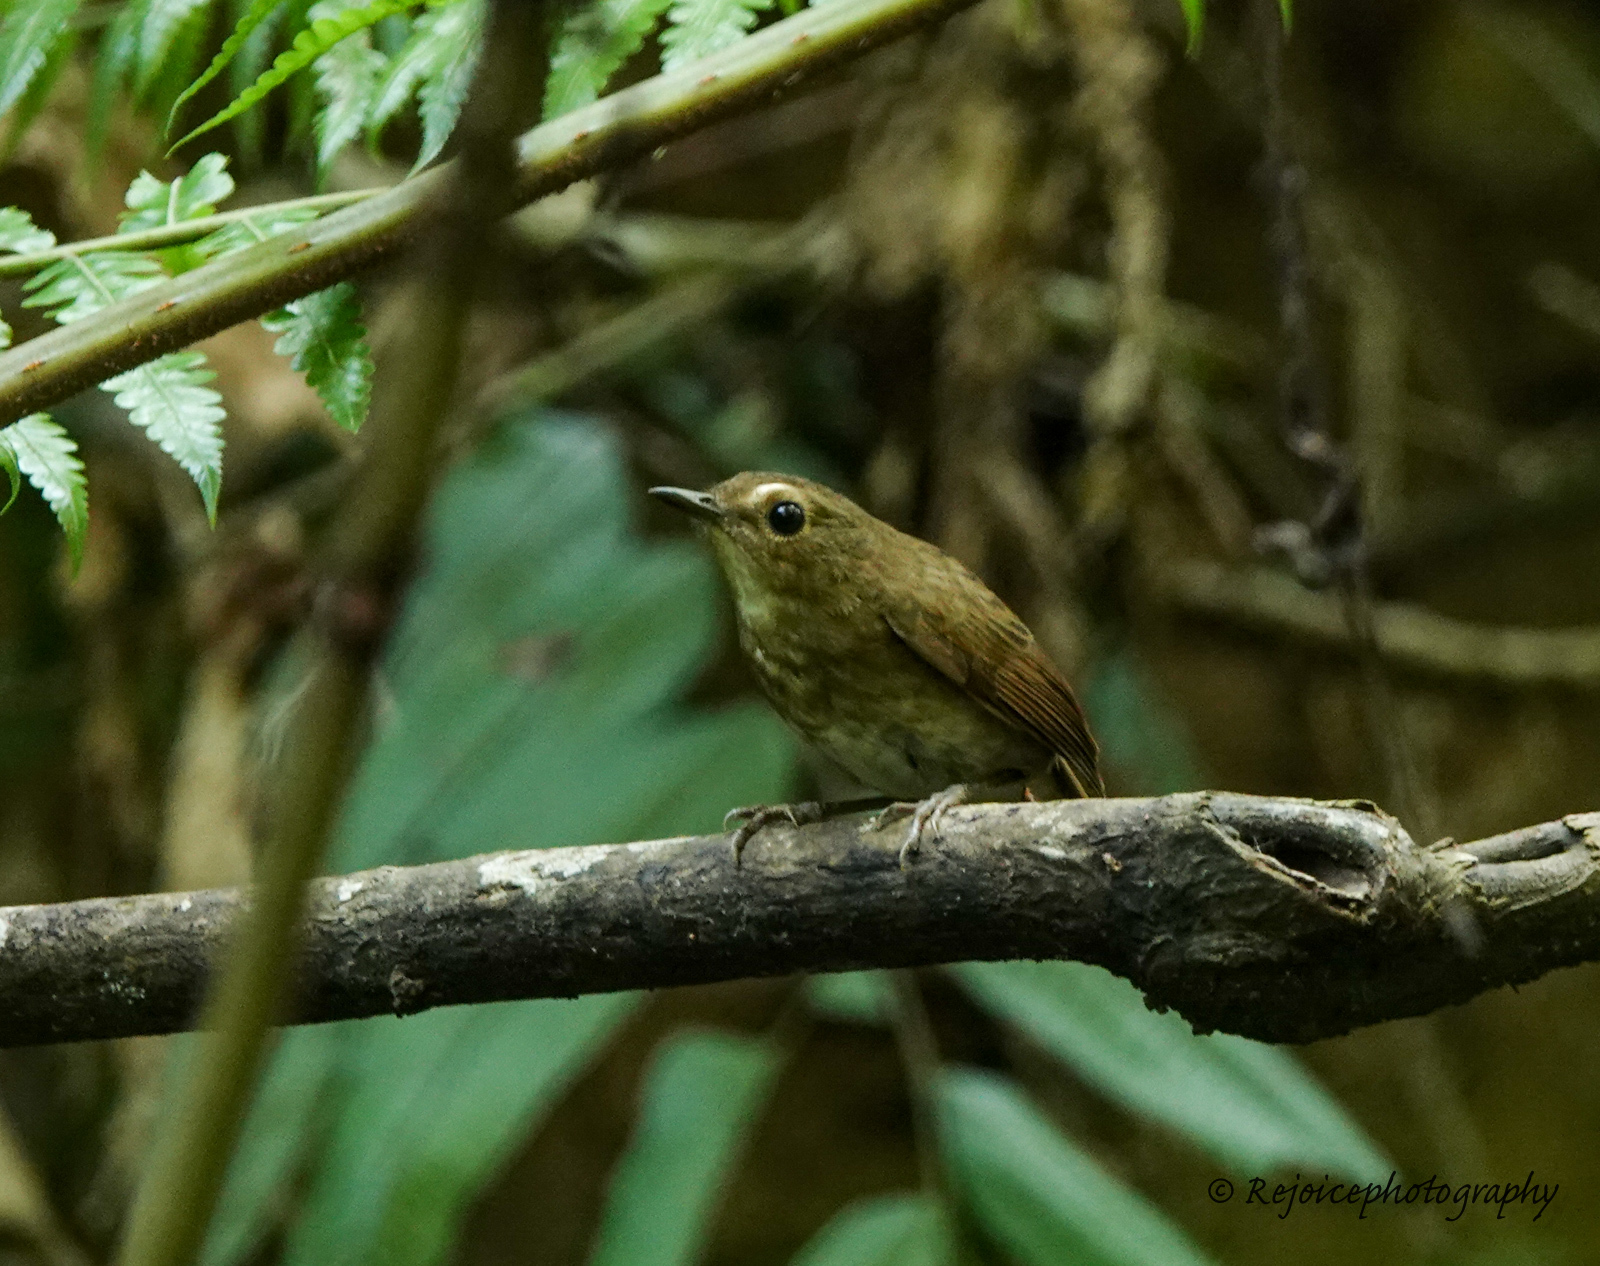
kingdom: Animalia
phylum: Chordata
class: Aves
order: Passeriformes
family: Muscicapidae
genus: Brachypteryx
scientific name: Brachypteryx leucophris
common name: Lesser shortwing
